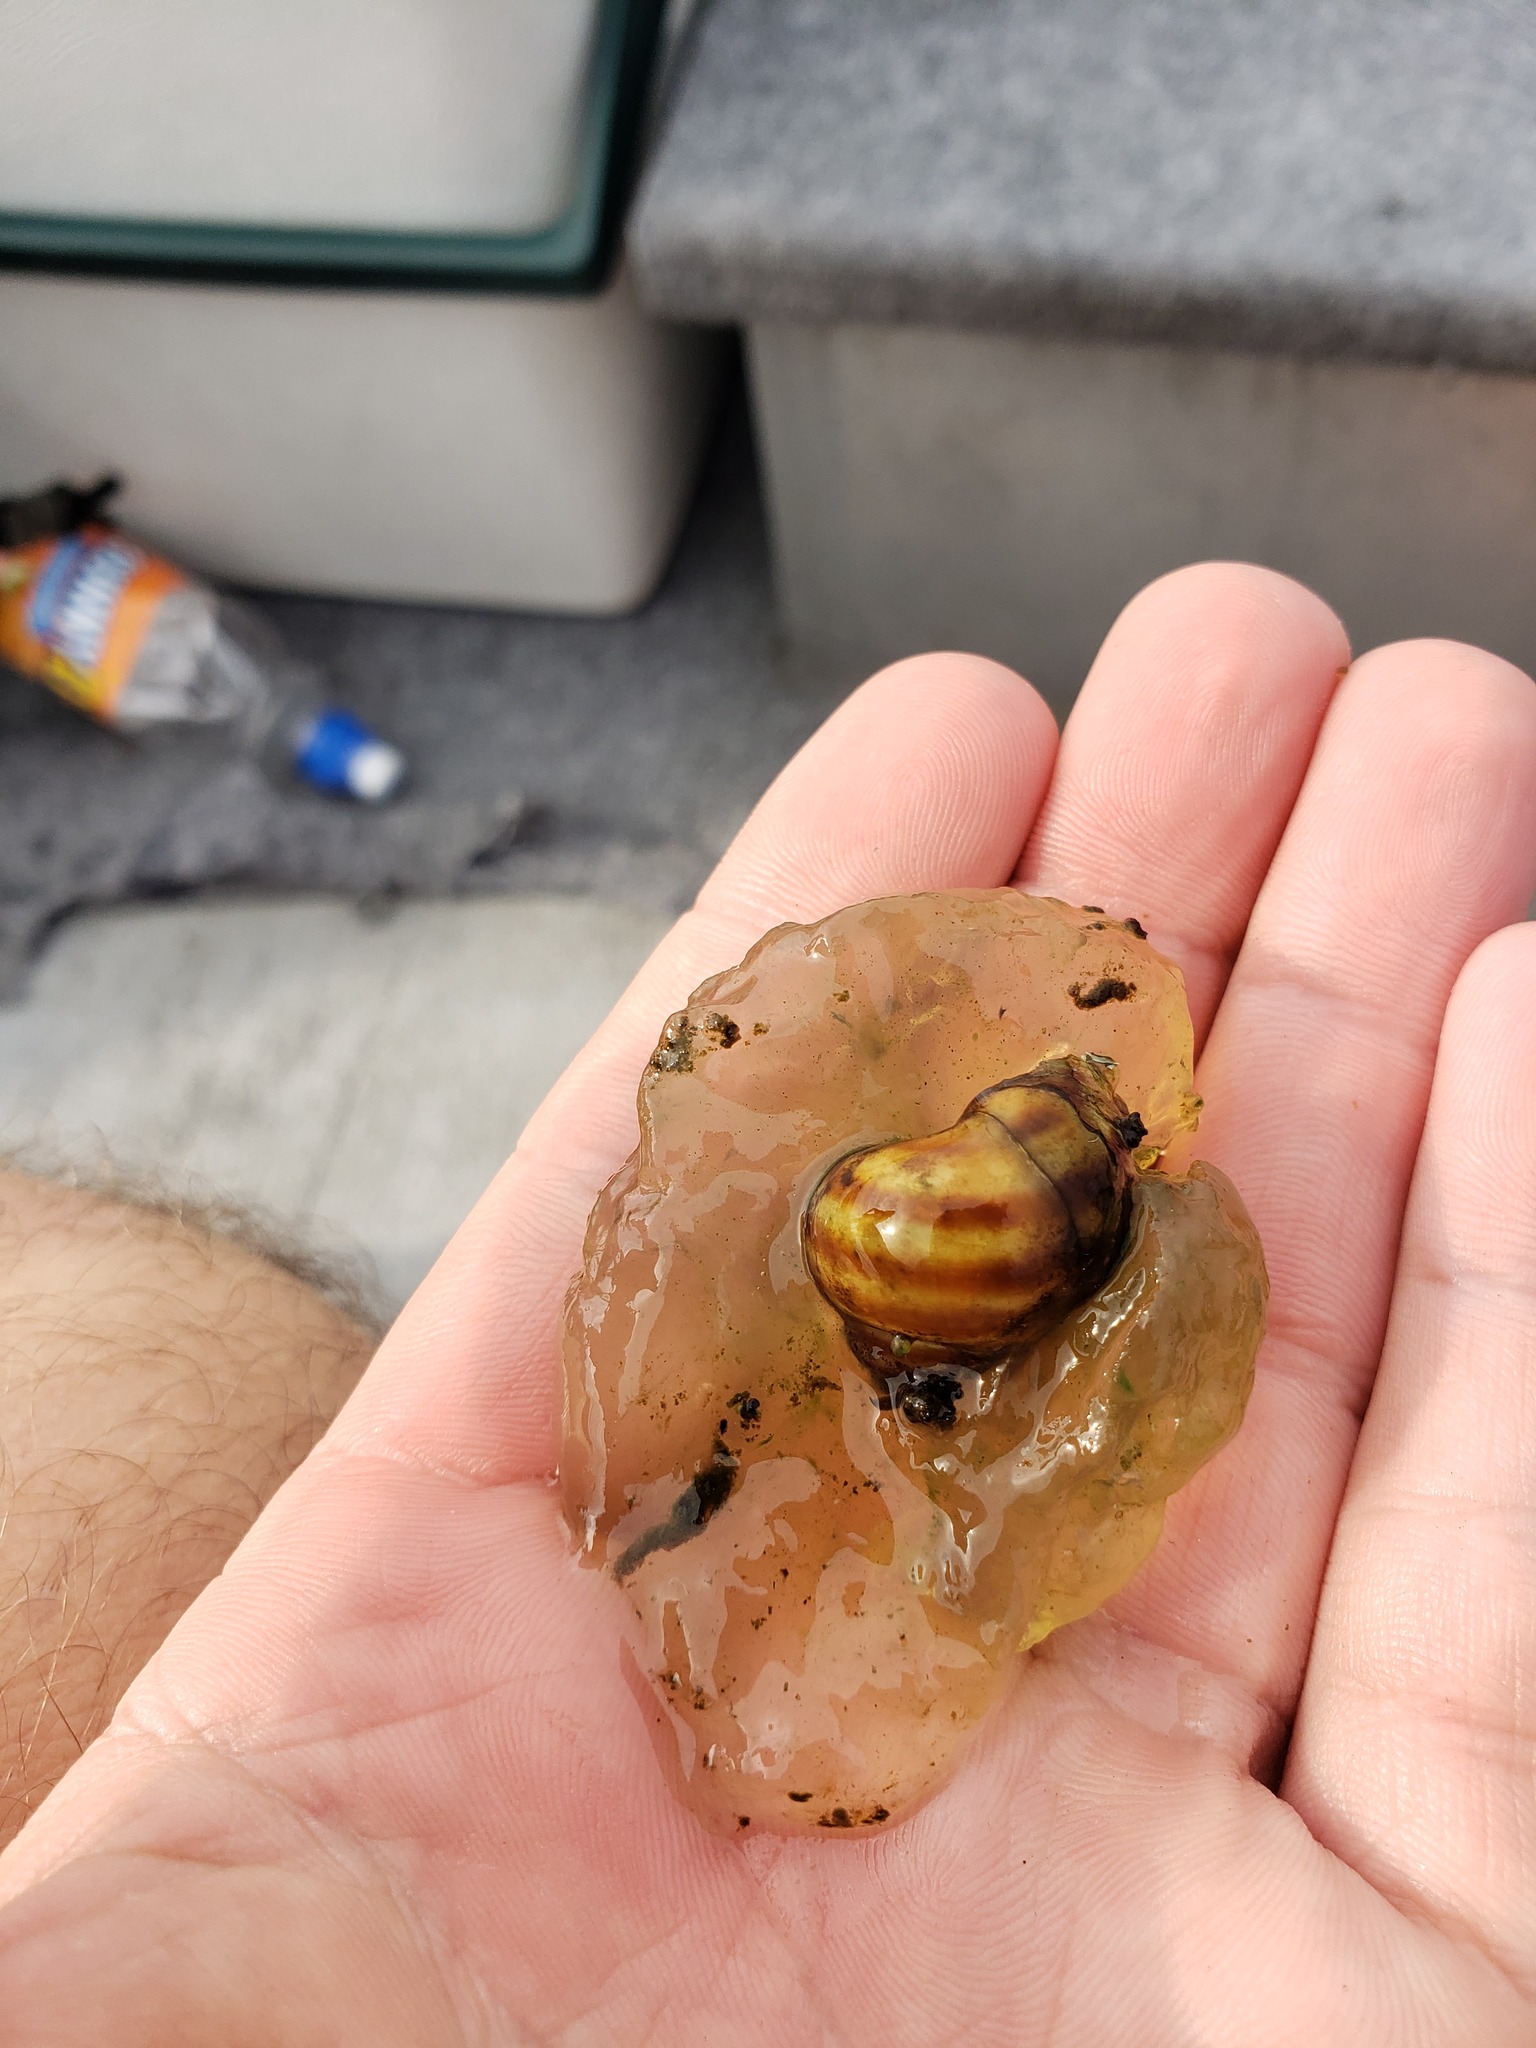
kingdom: Animalia
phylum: Mollusca
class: Gastropoda
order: Architaenioglossa
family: Viviparidae
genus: Callinina
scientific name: Callinina georgiana
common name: Banded mystery snail
